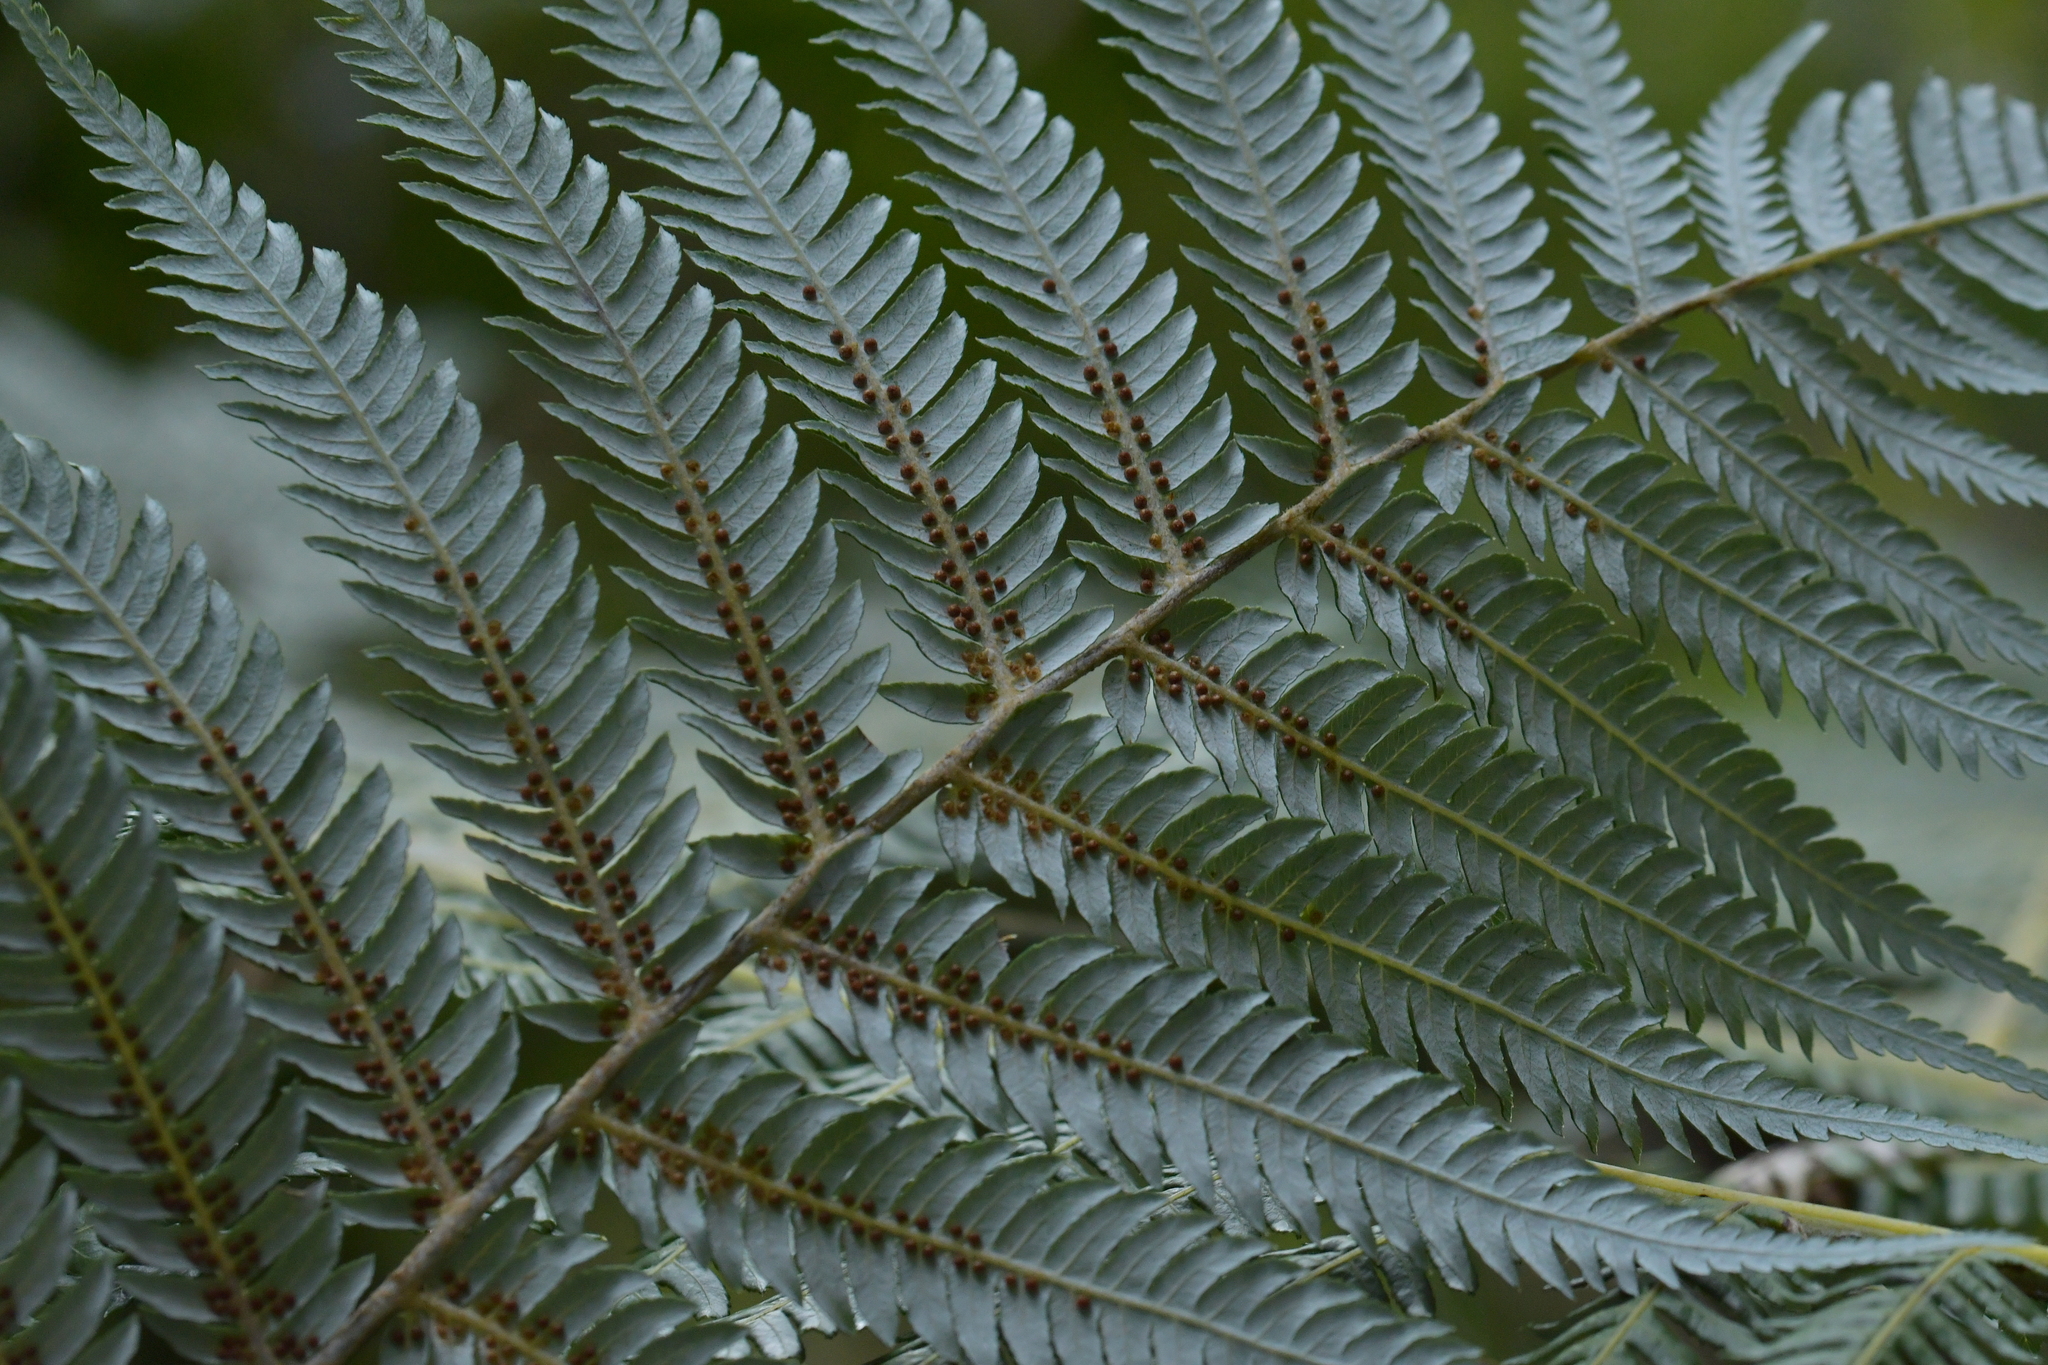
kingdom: Plantae
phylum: Tracheophyta
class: Polypodiopsida
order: Cyatheales
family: Cyatheaceae
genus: Alsophila
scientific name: Alsophila dealbata
